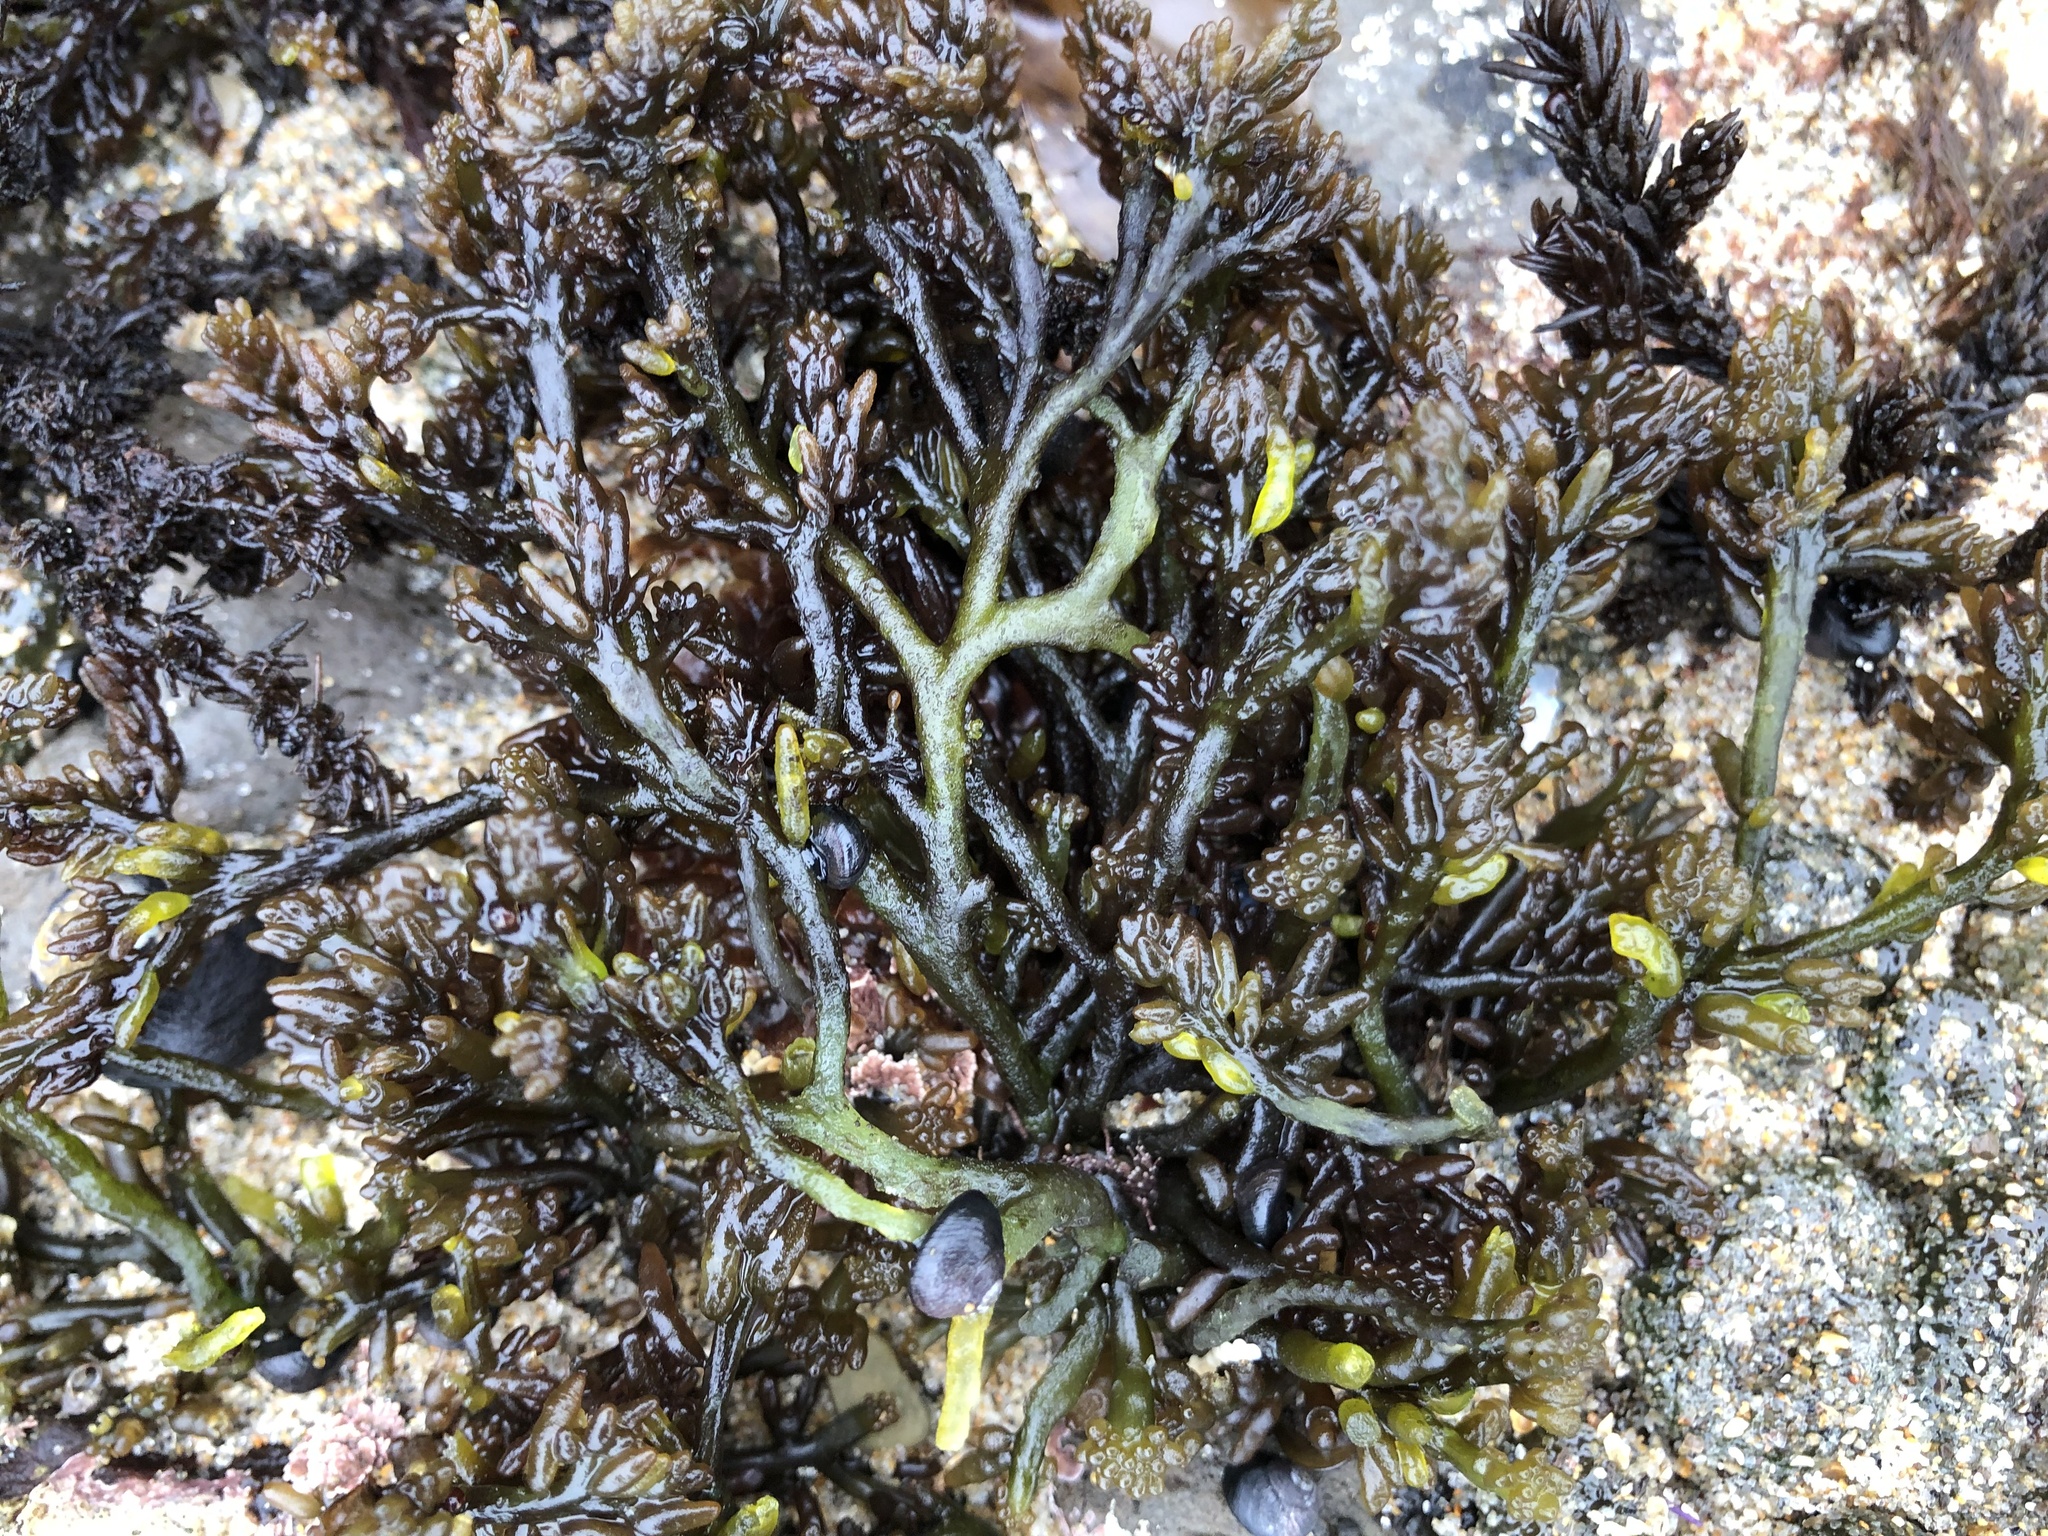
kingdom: Plantae
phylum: Rhodophyta
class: Florideophyceae
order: Rhodymeniales
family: Champiaceae
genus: Neogastroclonium
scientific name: Neogastroclonium subarticulatum
